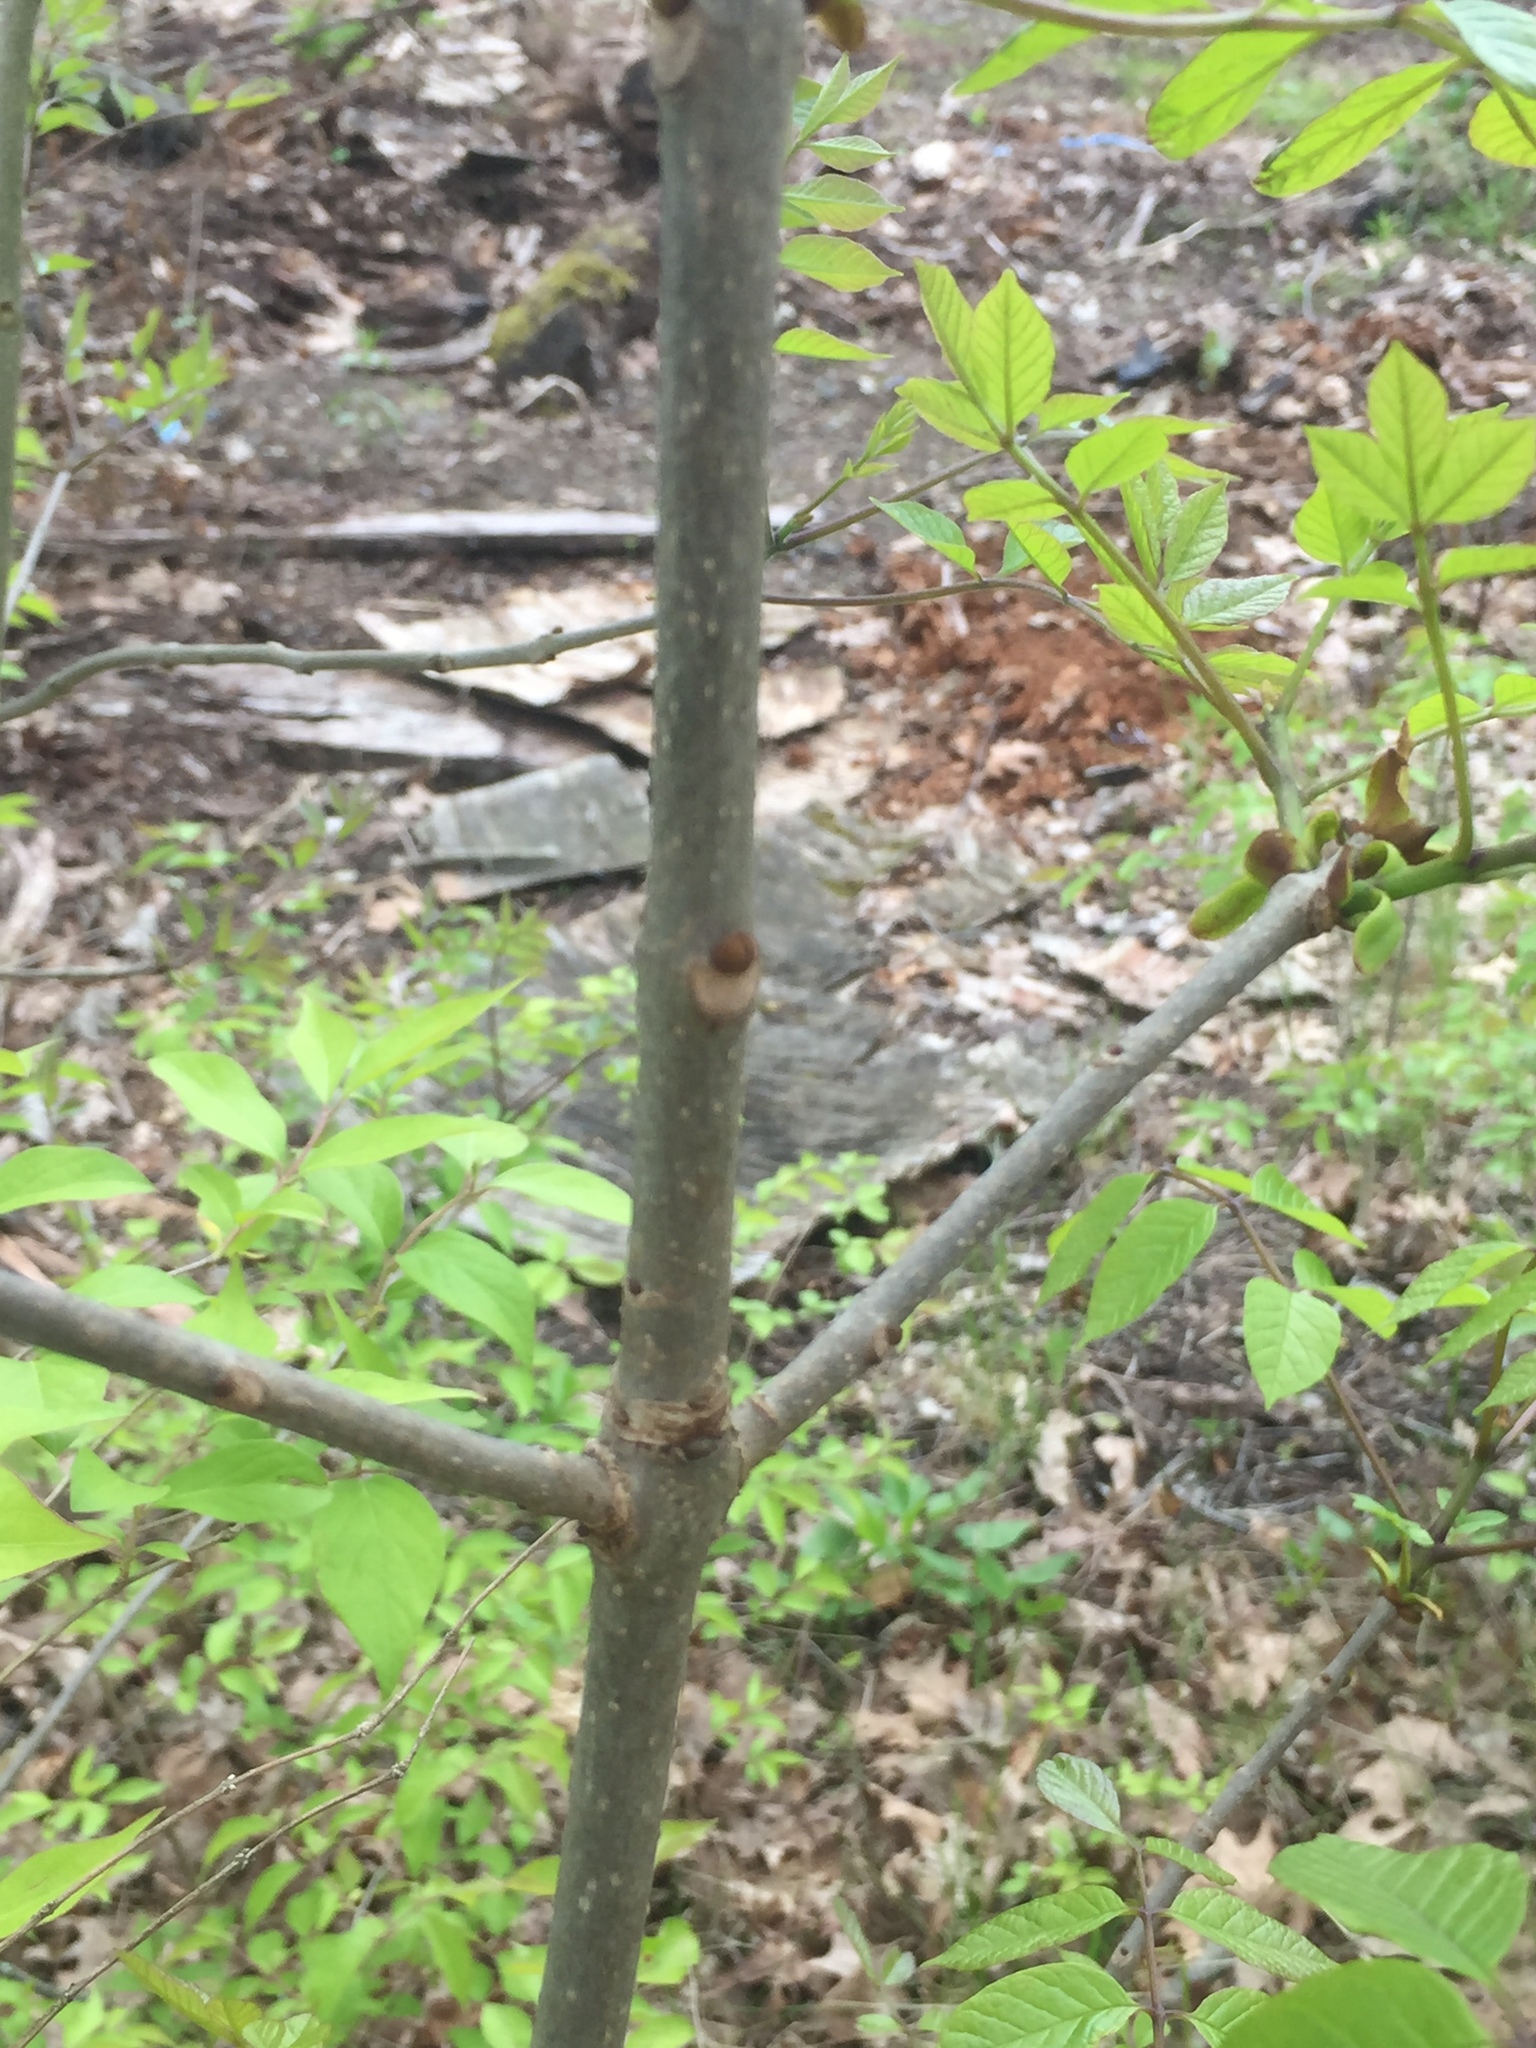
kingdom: Plantae
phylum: Tracheophyta
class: Magnoliopsida
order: Lamiales
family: Oleaceae
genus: Fraxinus
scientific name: Fraxinus quadrangulata
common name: Blue ash
